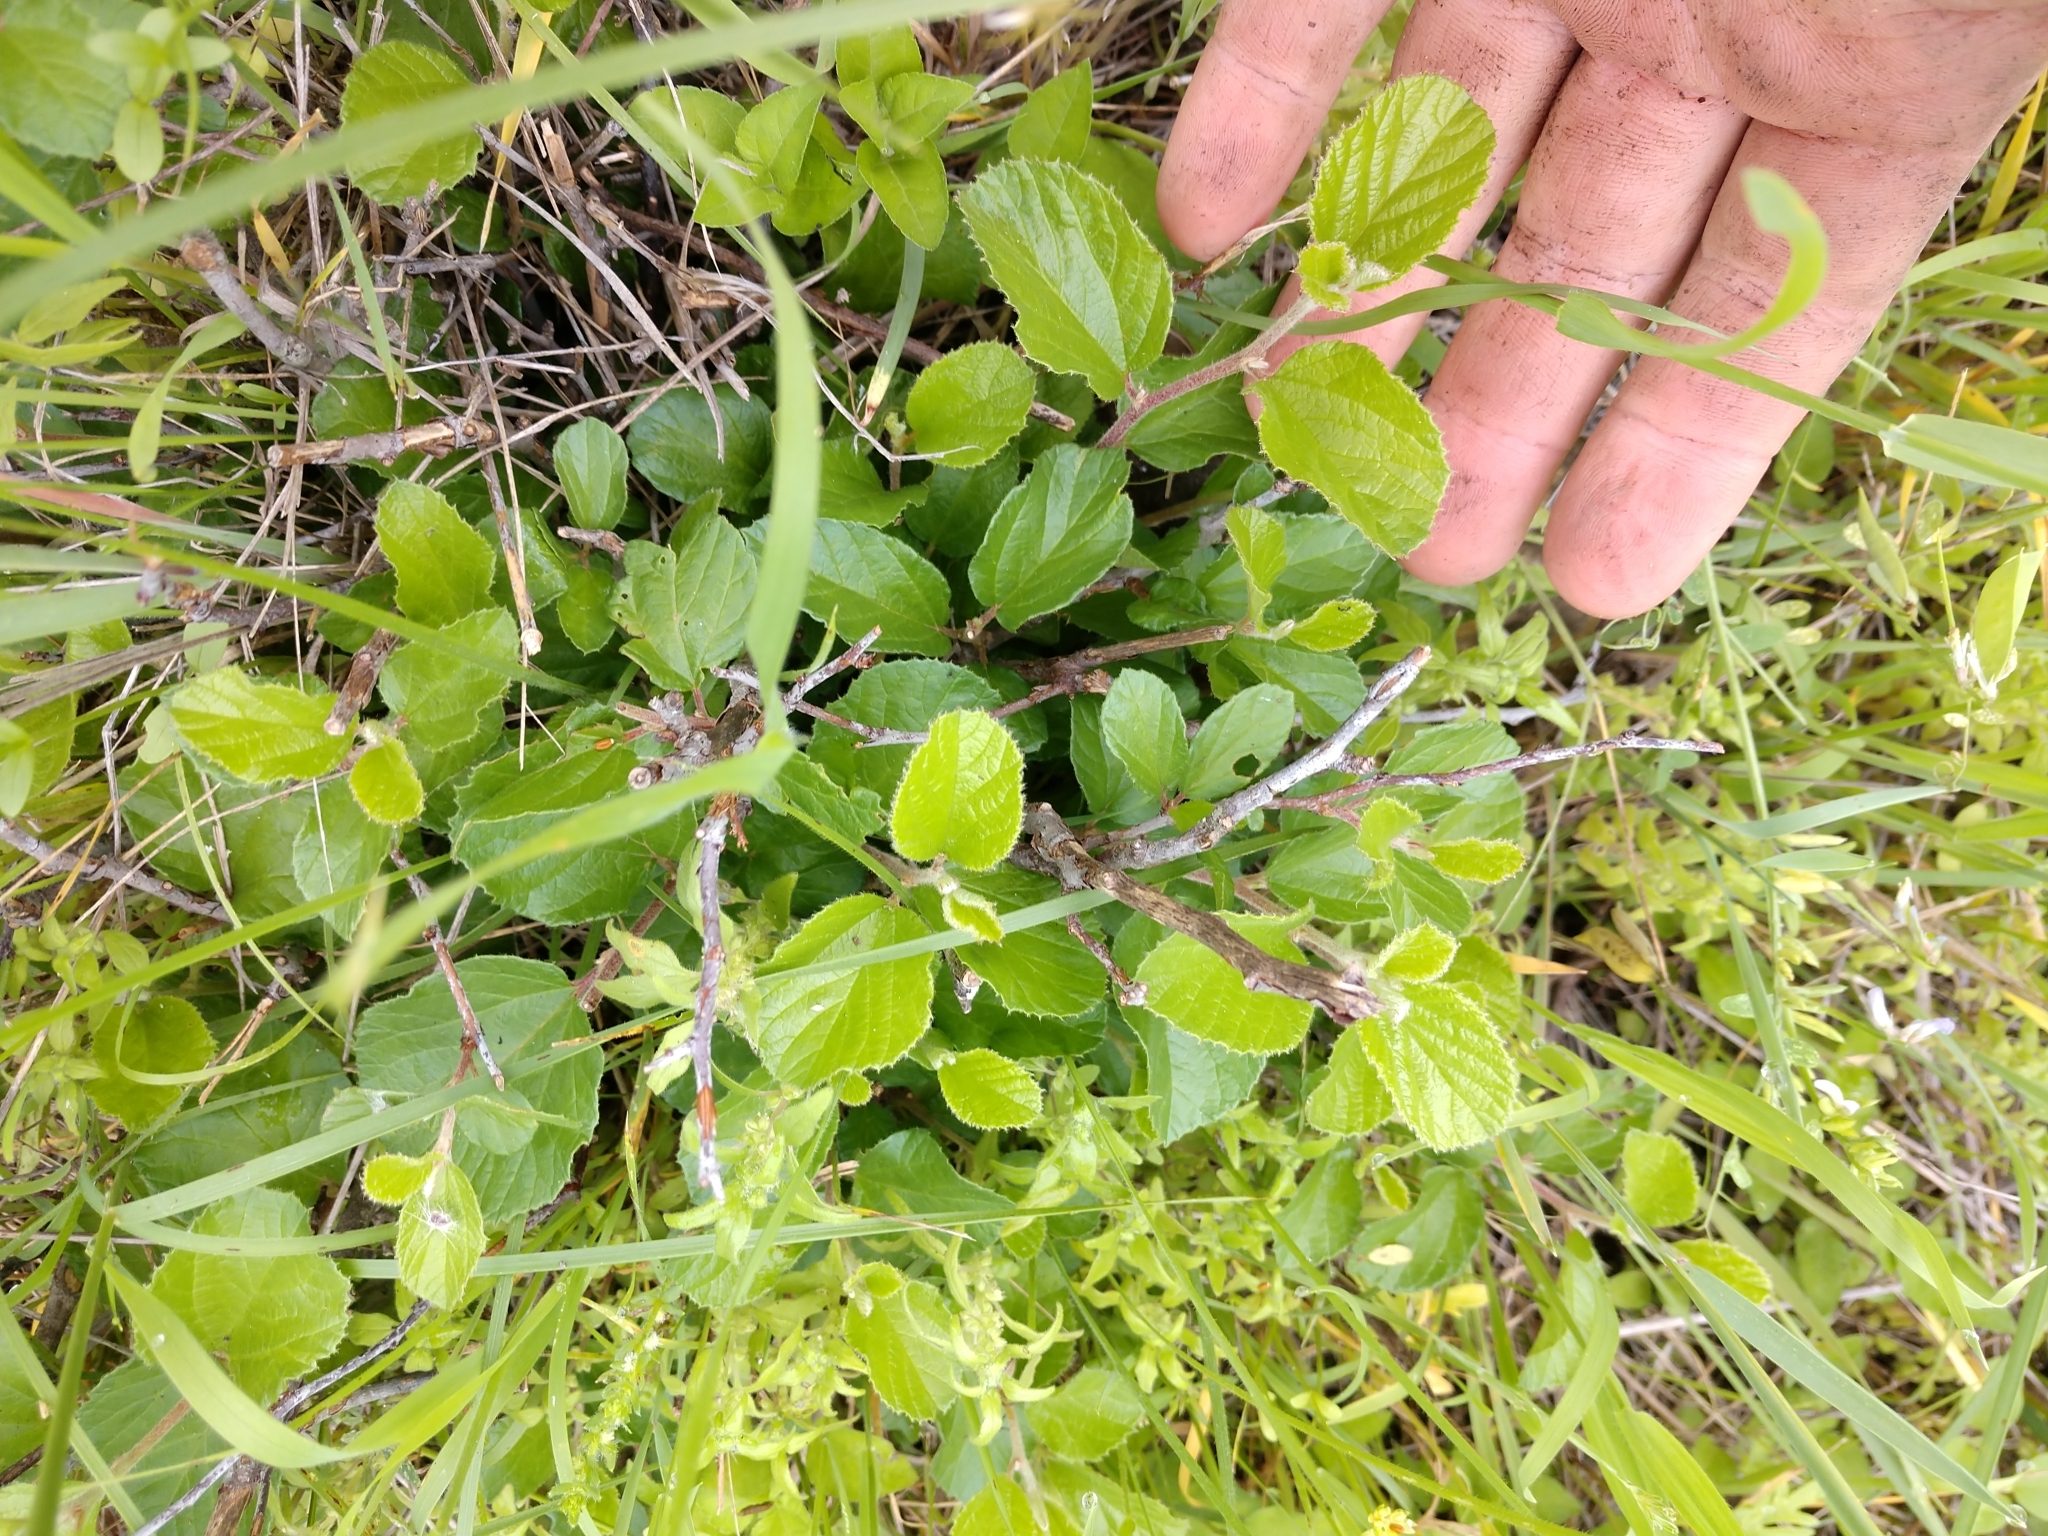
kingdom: Plantae
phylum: Tracheophyta
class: Magnoliopsida
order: Rosales
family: Rhamnaceae
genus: Colubrina
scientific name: Colubrina texensis
